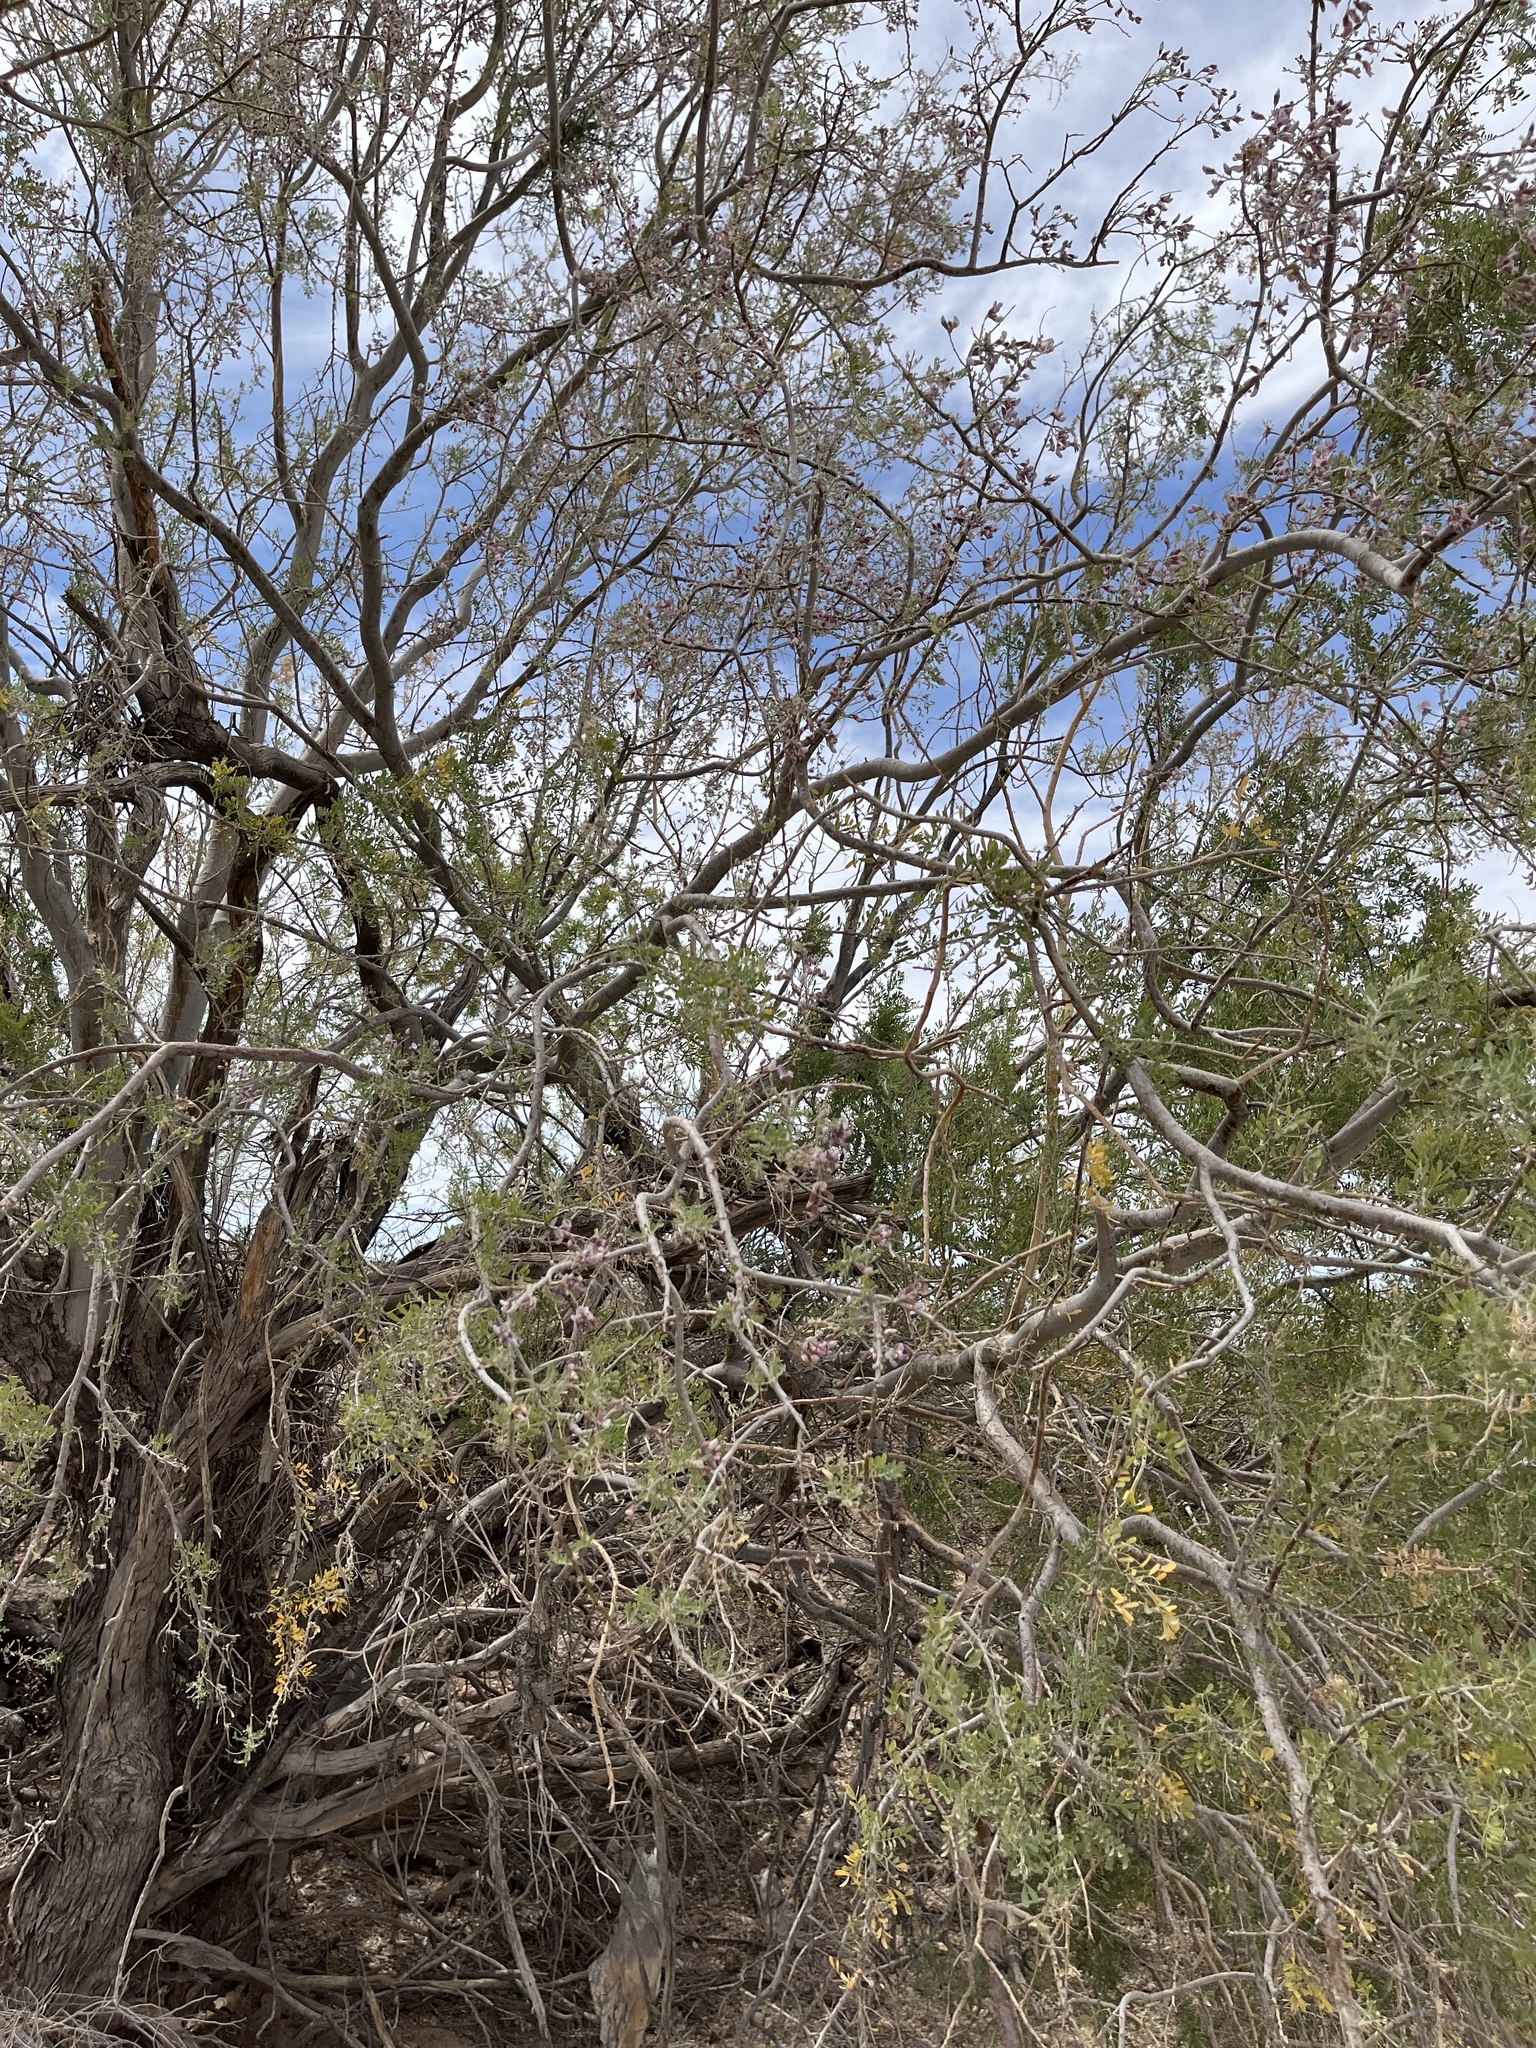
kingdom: Plantae
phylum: Tracheophyta
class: Magnoliopsida
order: Fabales
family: Fabaceae
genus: Olneya
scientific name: Olneya tesota
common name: Desert ironwood
